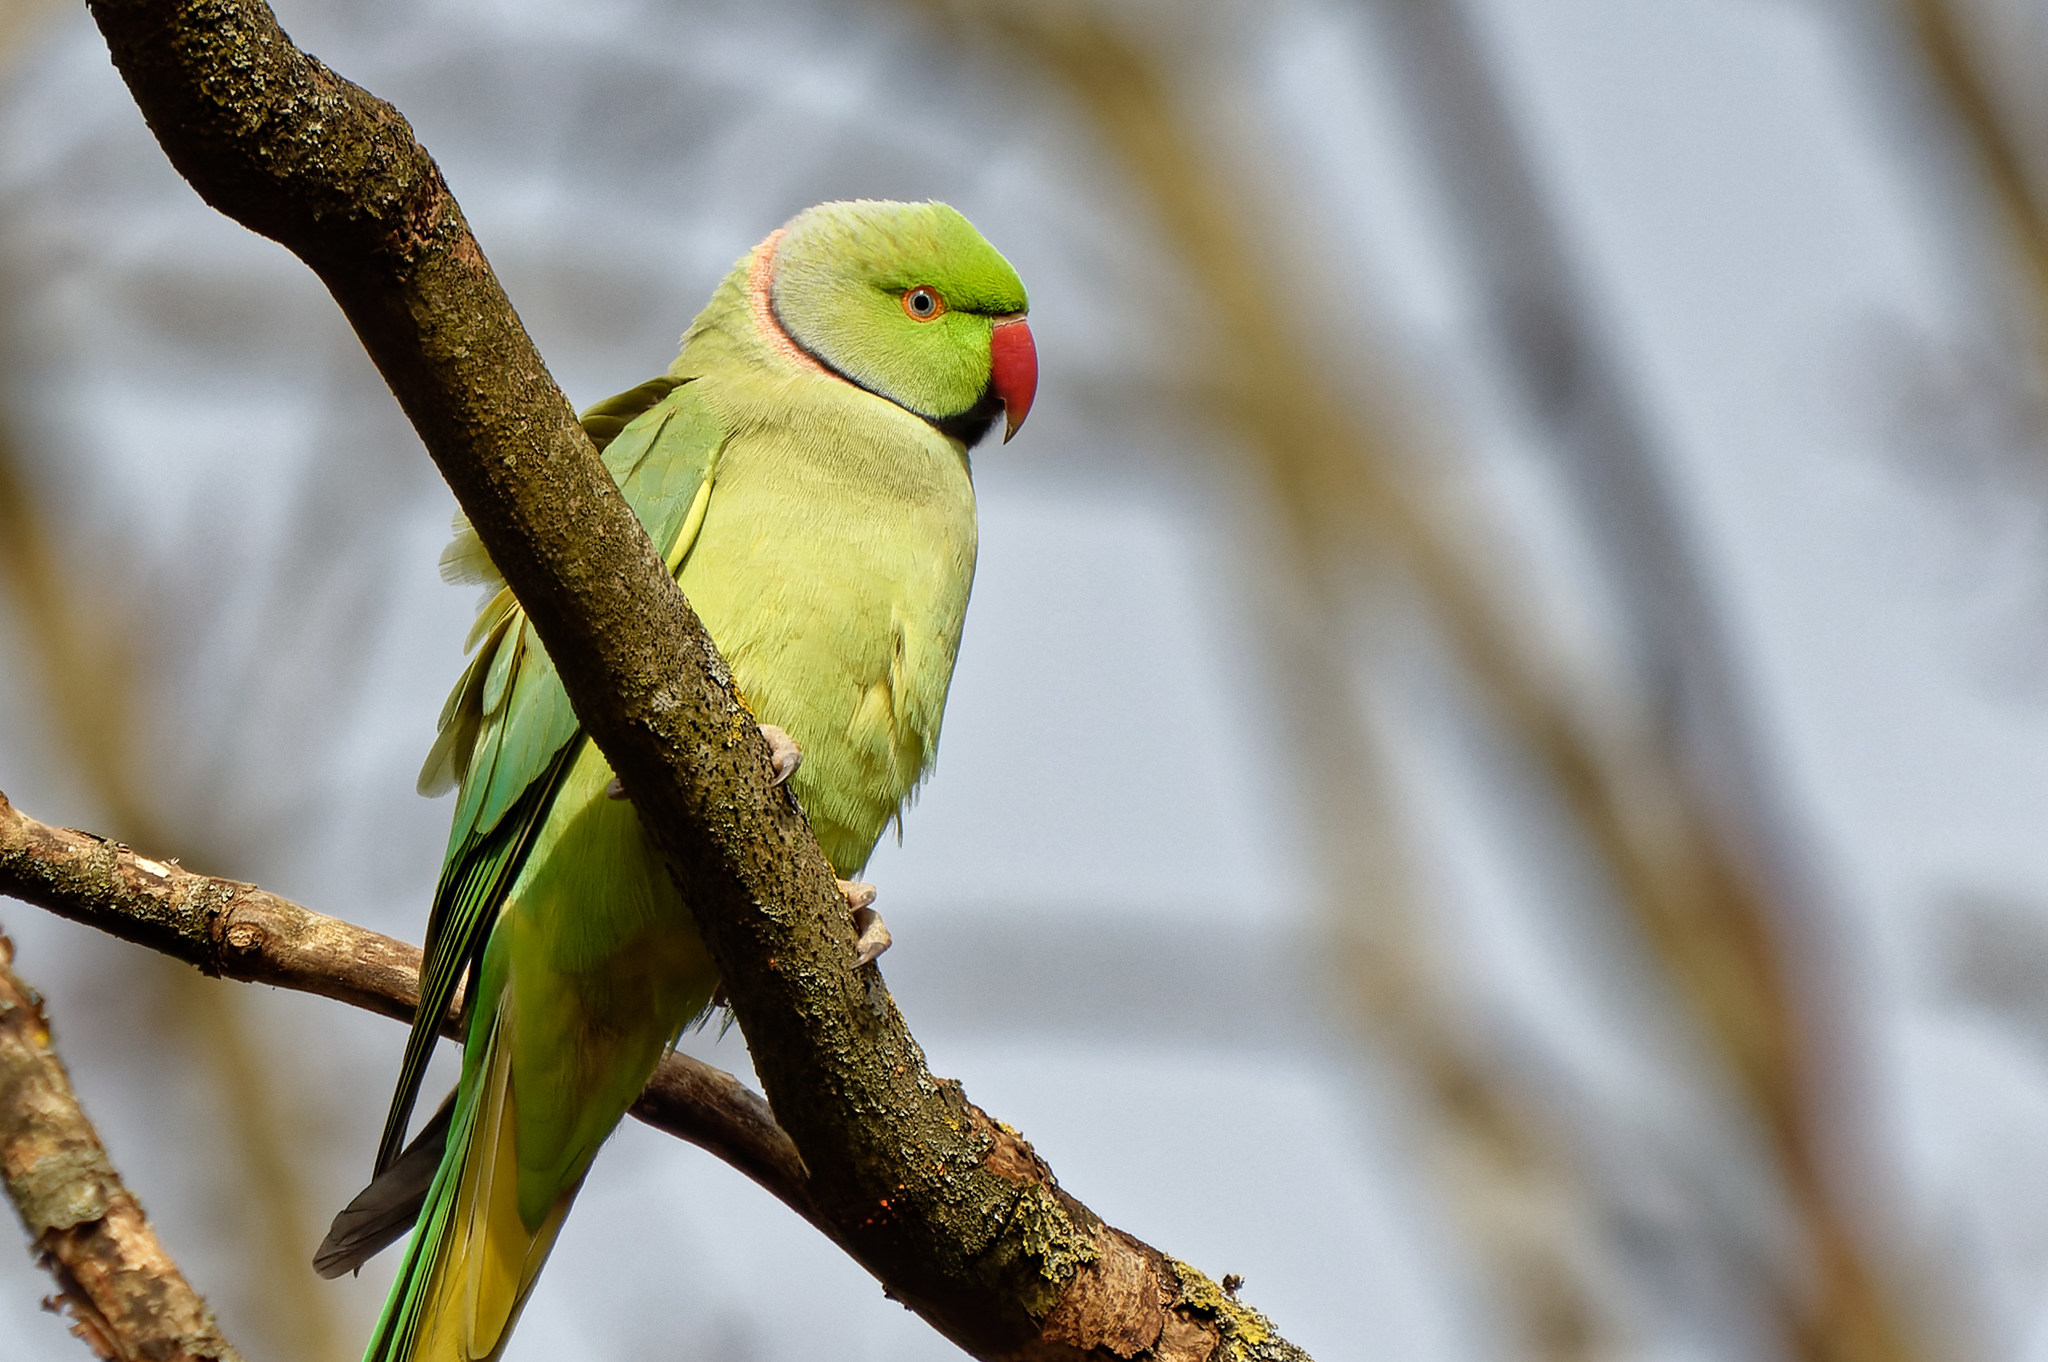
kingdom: Animalia
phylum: Chordata
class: Aves
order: Psittaciformes
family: Psittacidae
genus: Psittacula
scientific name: Psittacula krameri
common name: Rose-ringed parakeet
